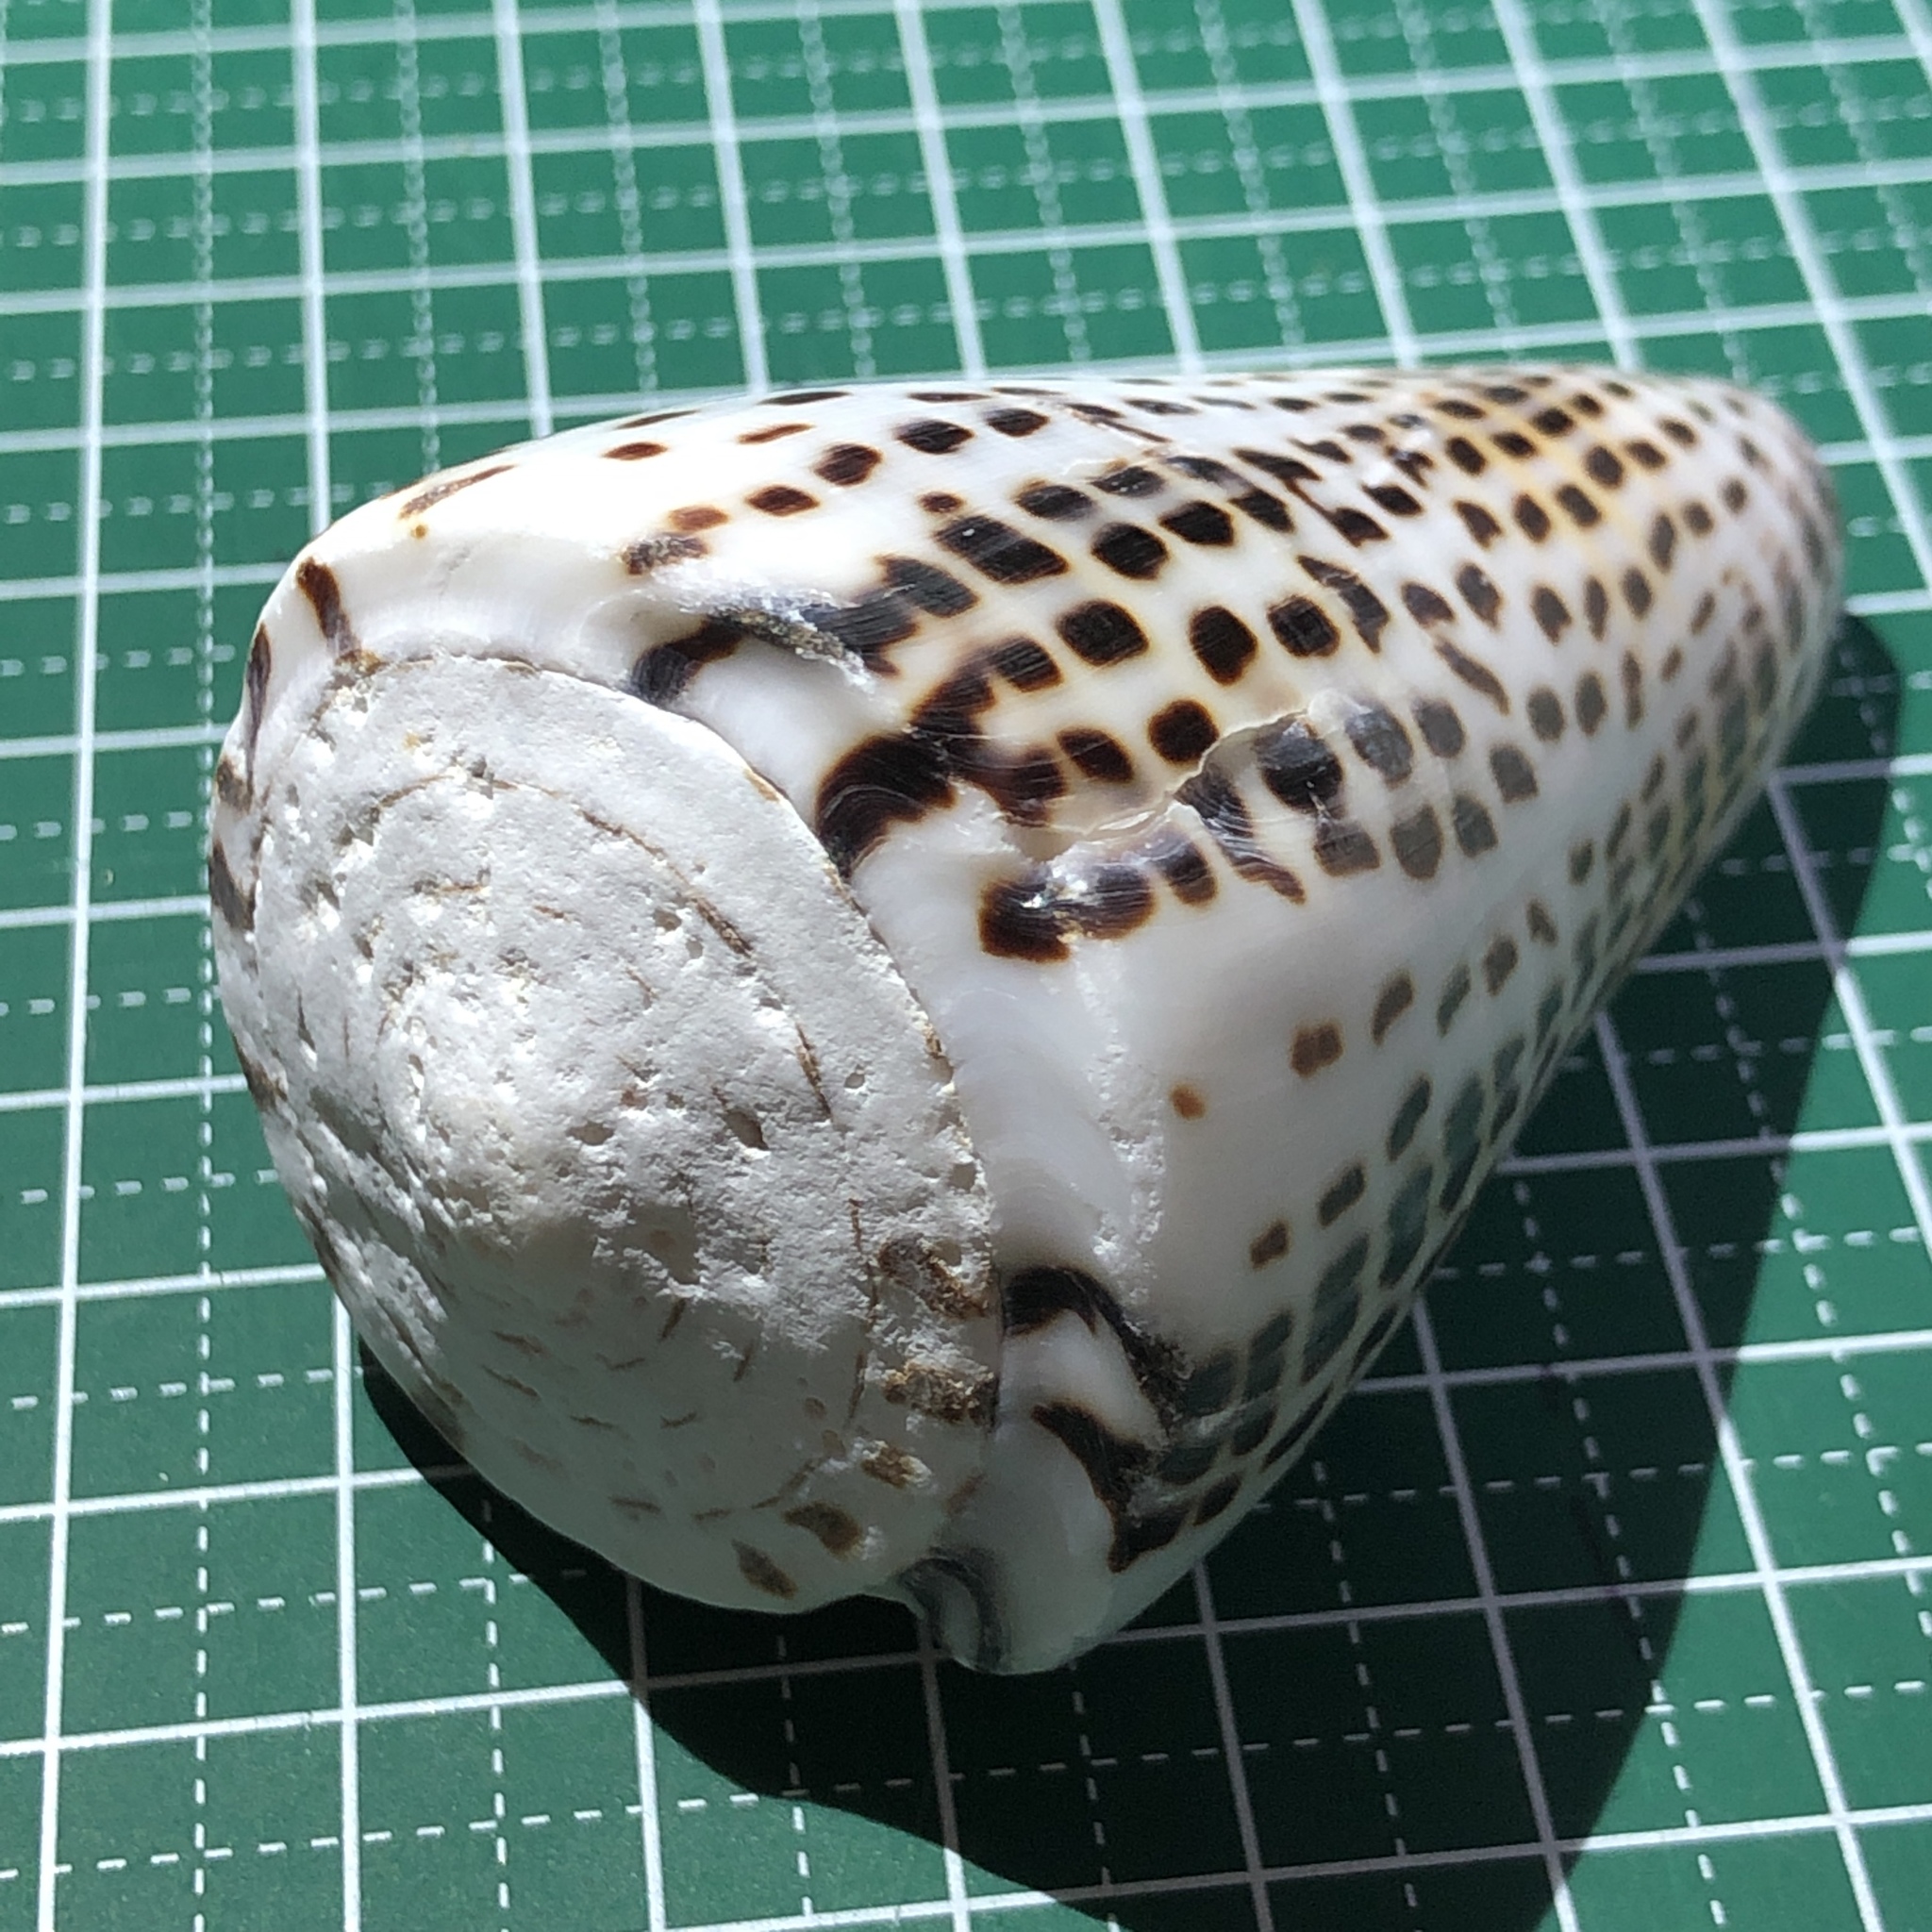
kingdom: Animalia
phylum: Mollusca
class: Gastropoda
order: Neogastropoda
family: Conidae
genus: Conus
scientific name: Conus litteratus
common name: Lettered cone
